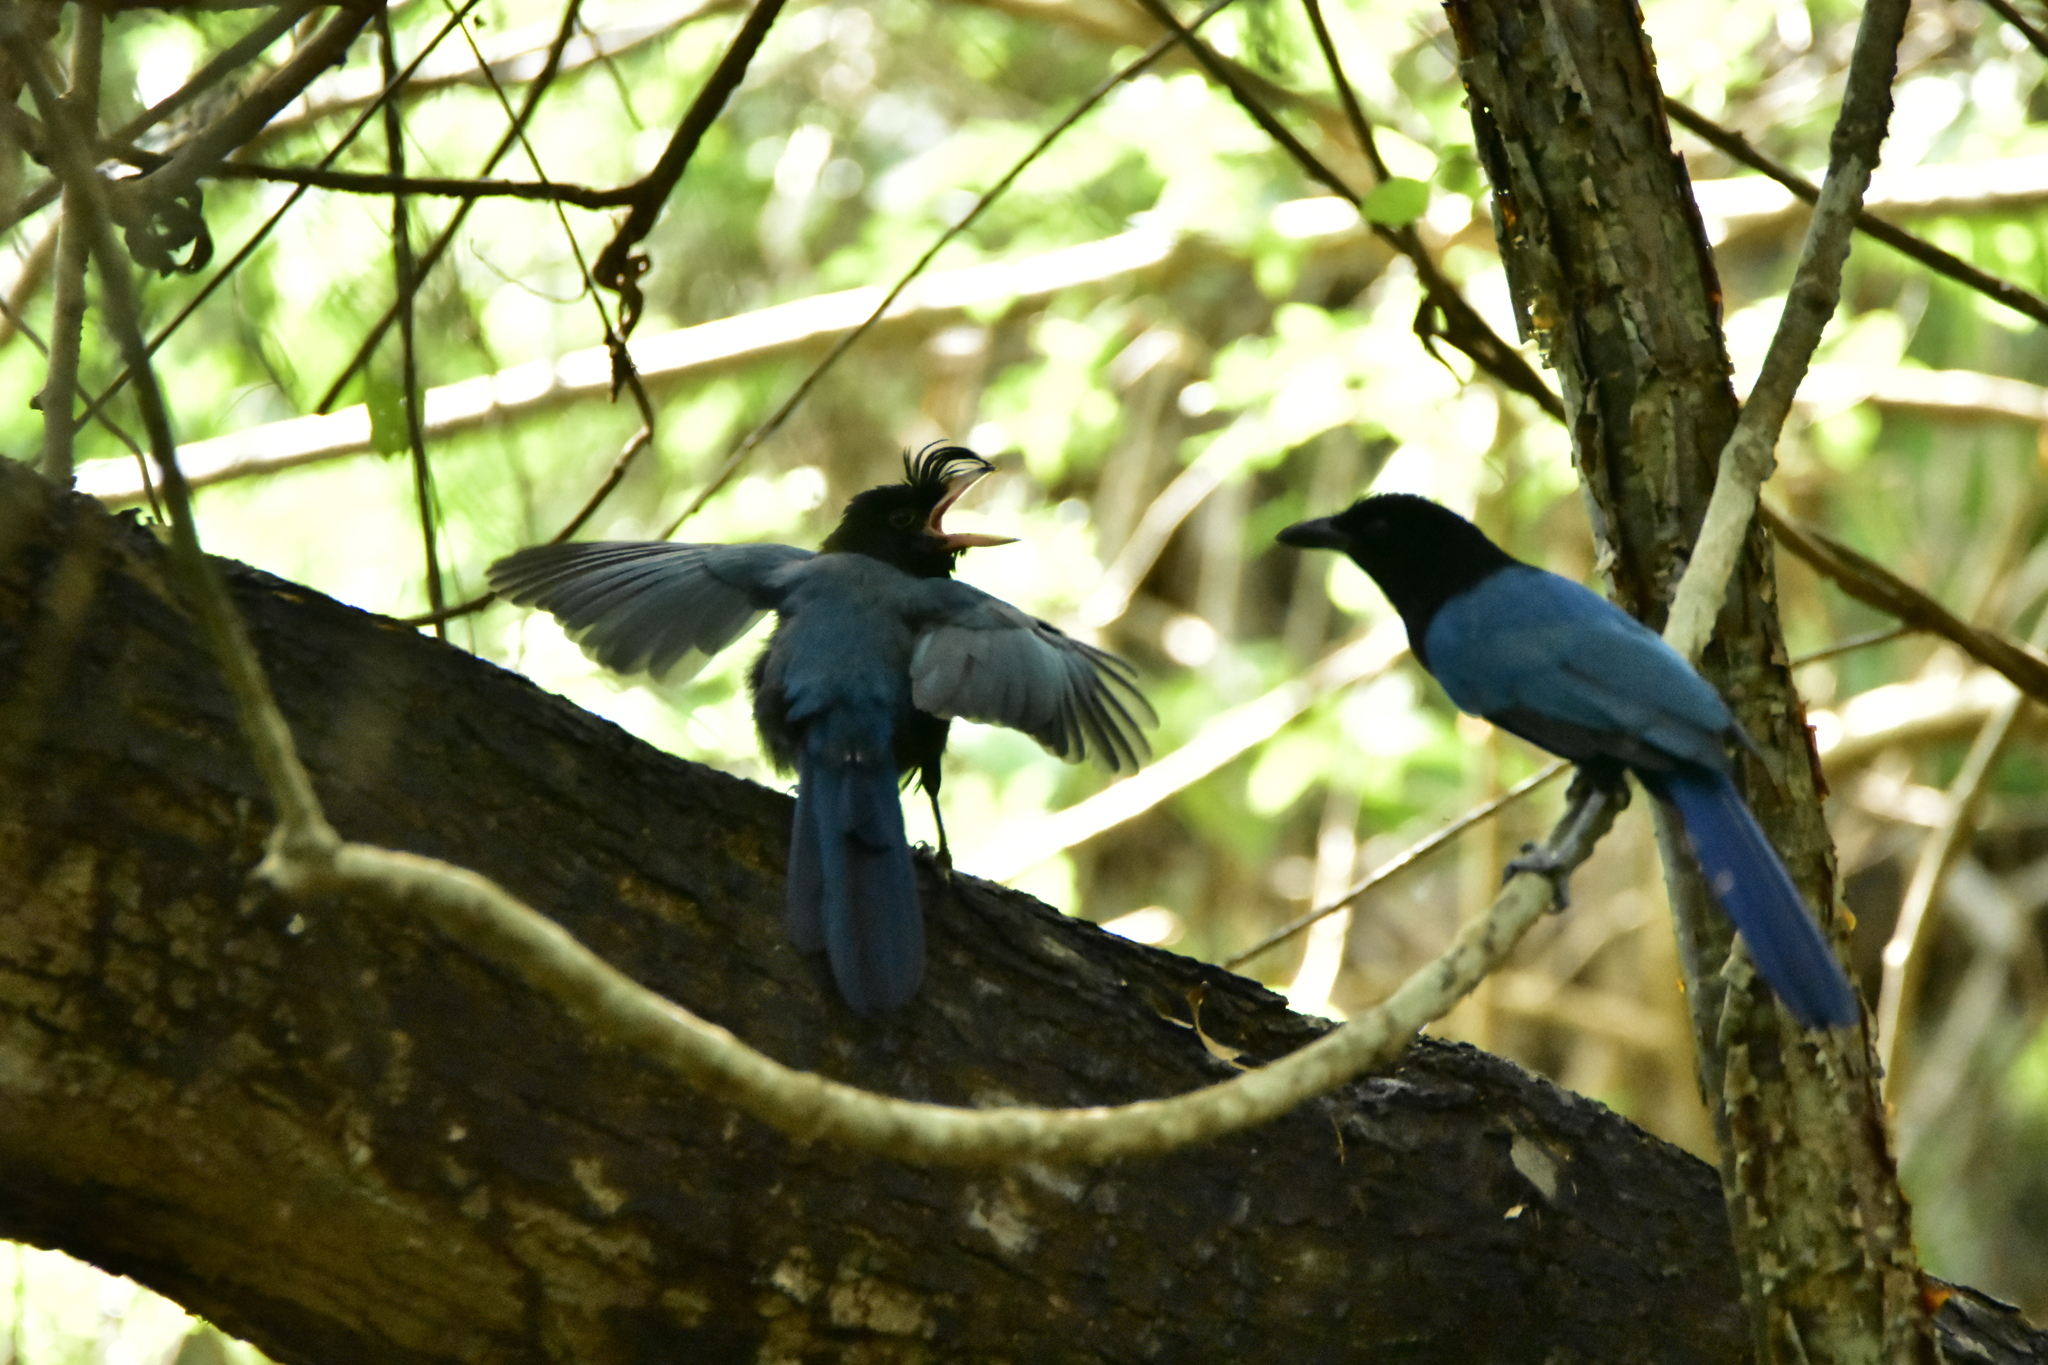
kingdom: Animalia
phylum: Chordata
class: Aves
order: Passeriformes
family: Corvidae
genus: Cyanocorax
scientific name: Cyanocorax sanblasianus
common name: San blas jay
